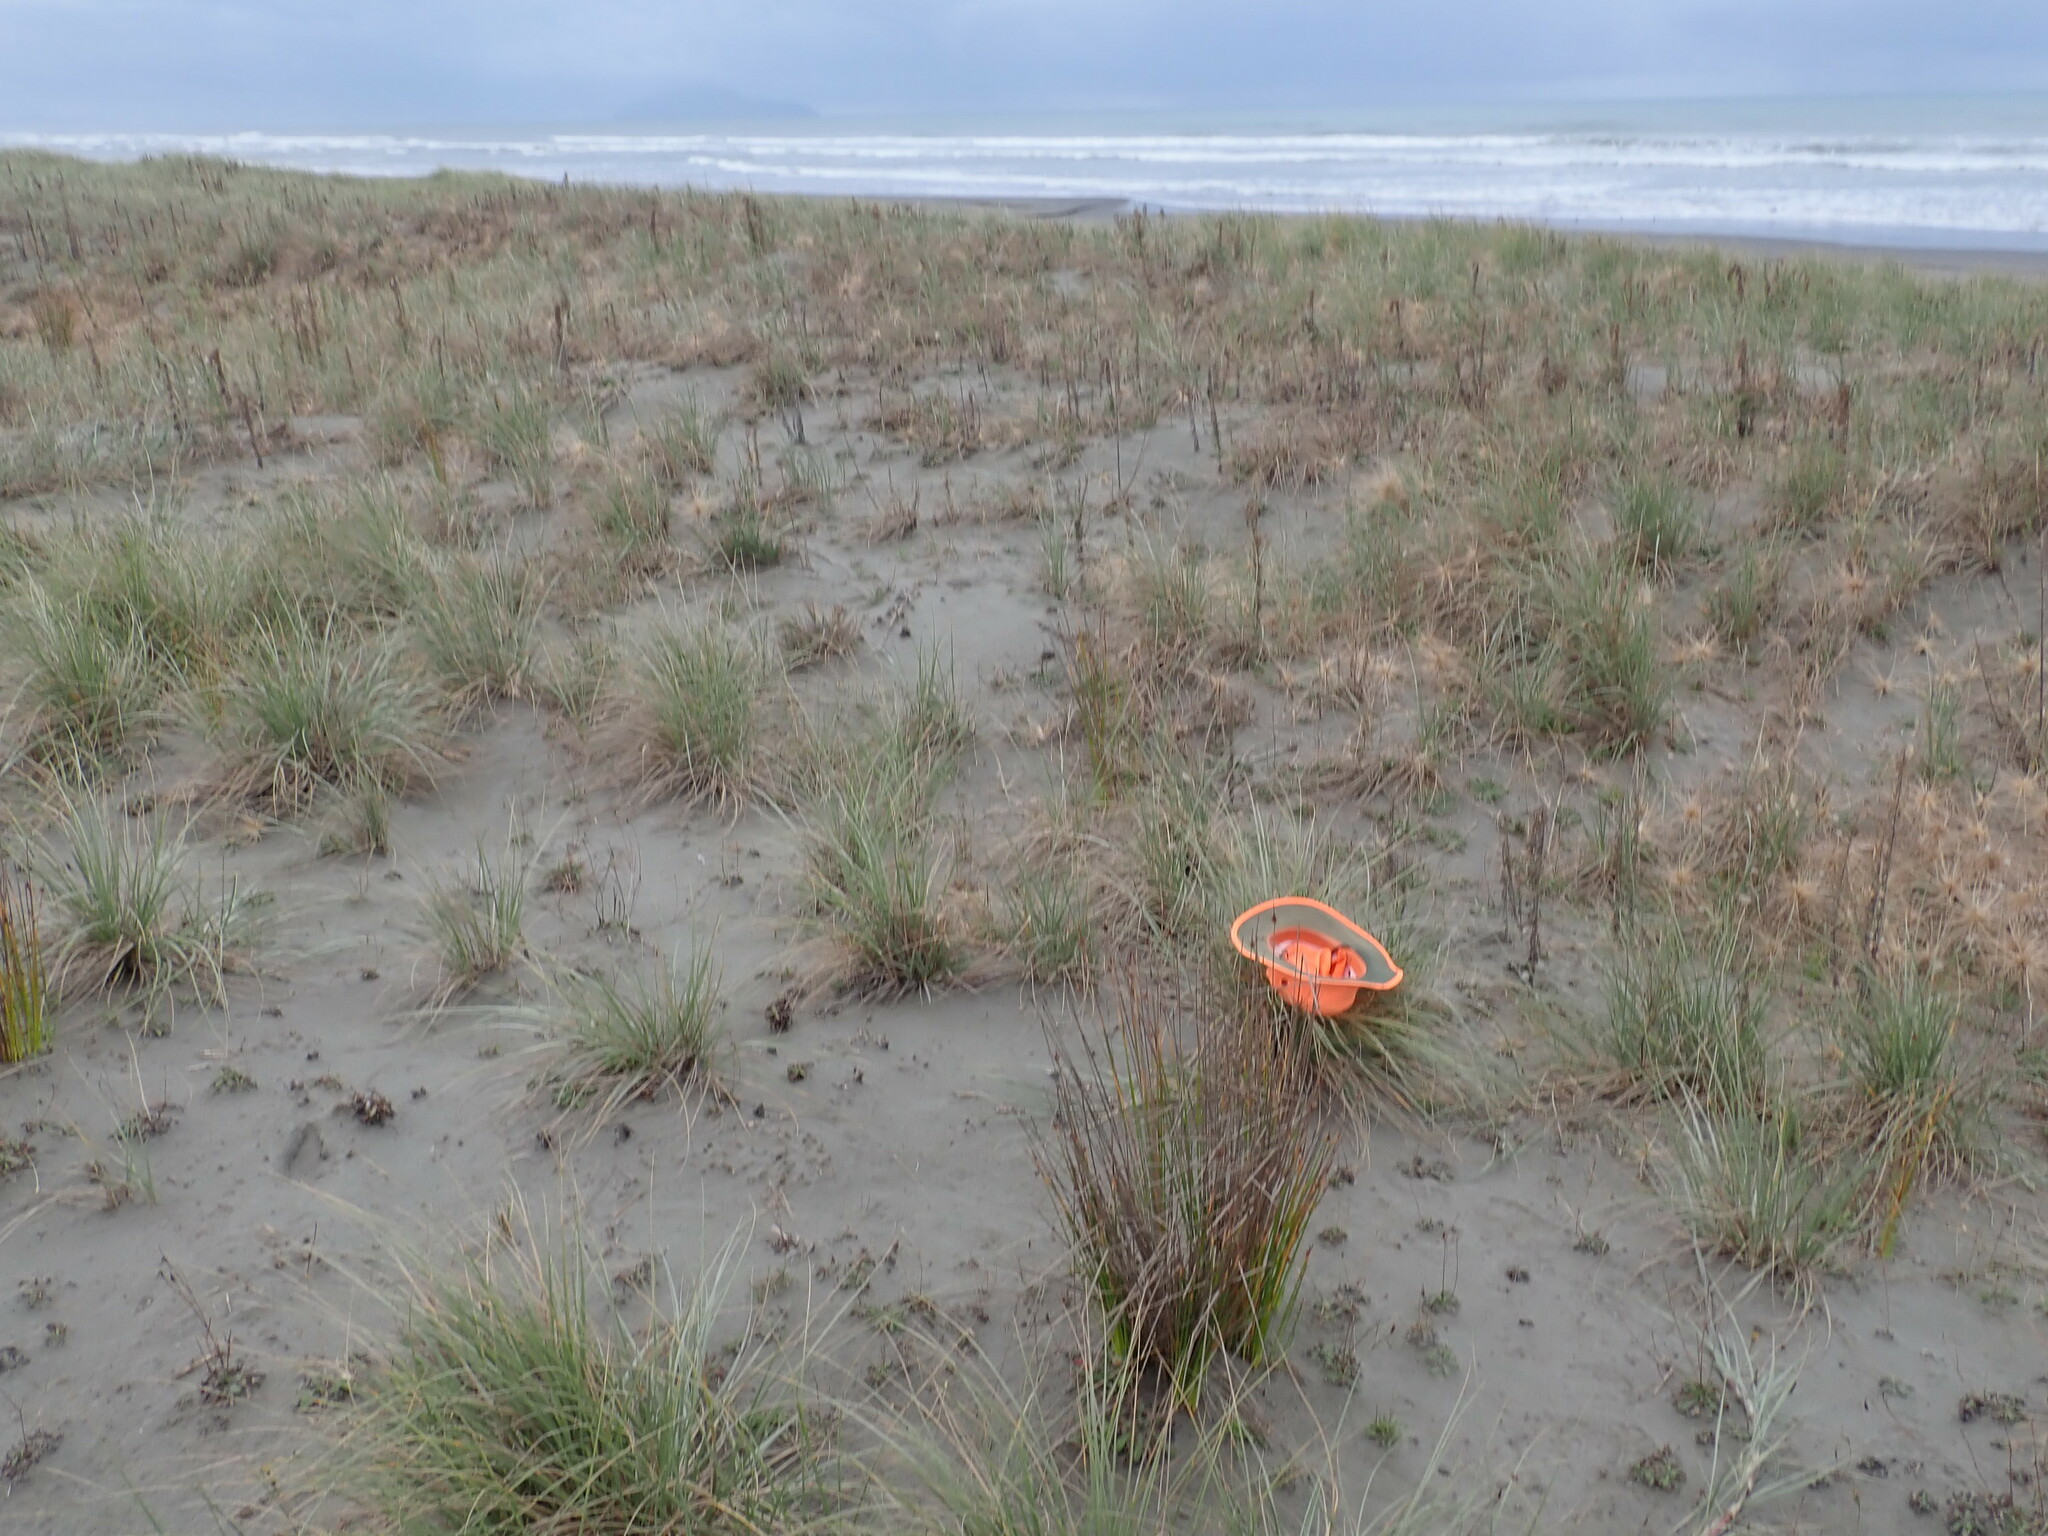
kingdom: Animalia
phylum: Arthropoda
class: Arachnida
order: Araneae
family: Theridiidae
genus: Latrodectus
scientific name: Latrodectus katipo
